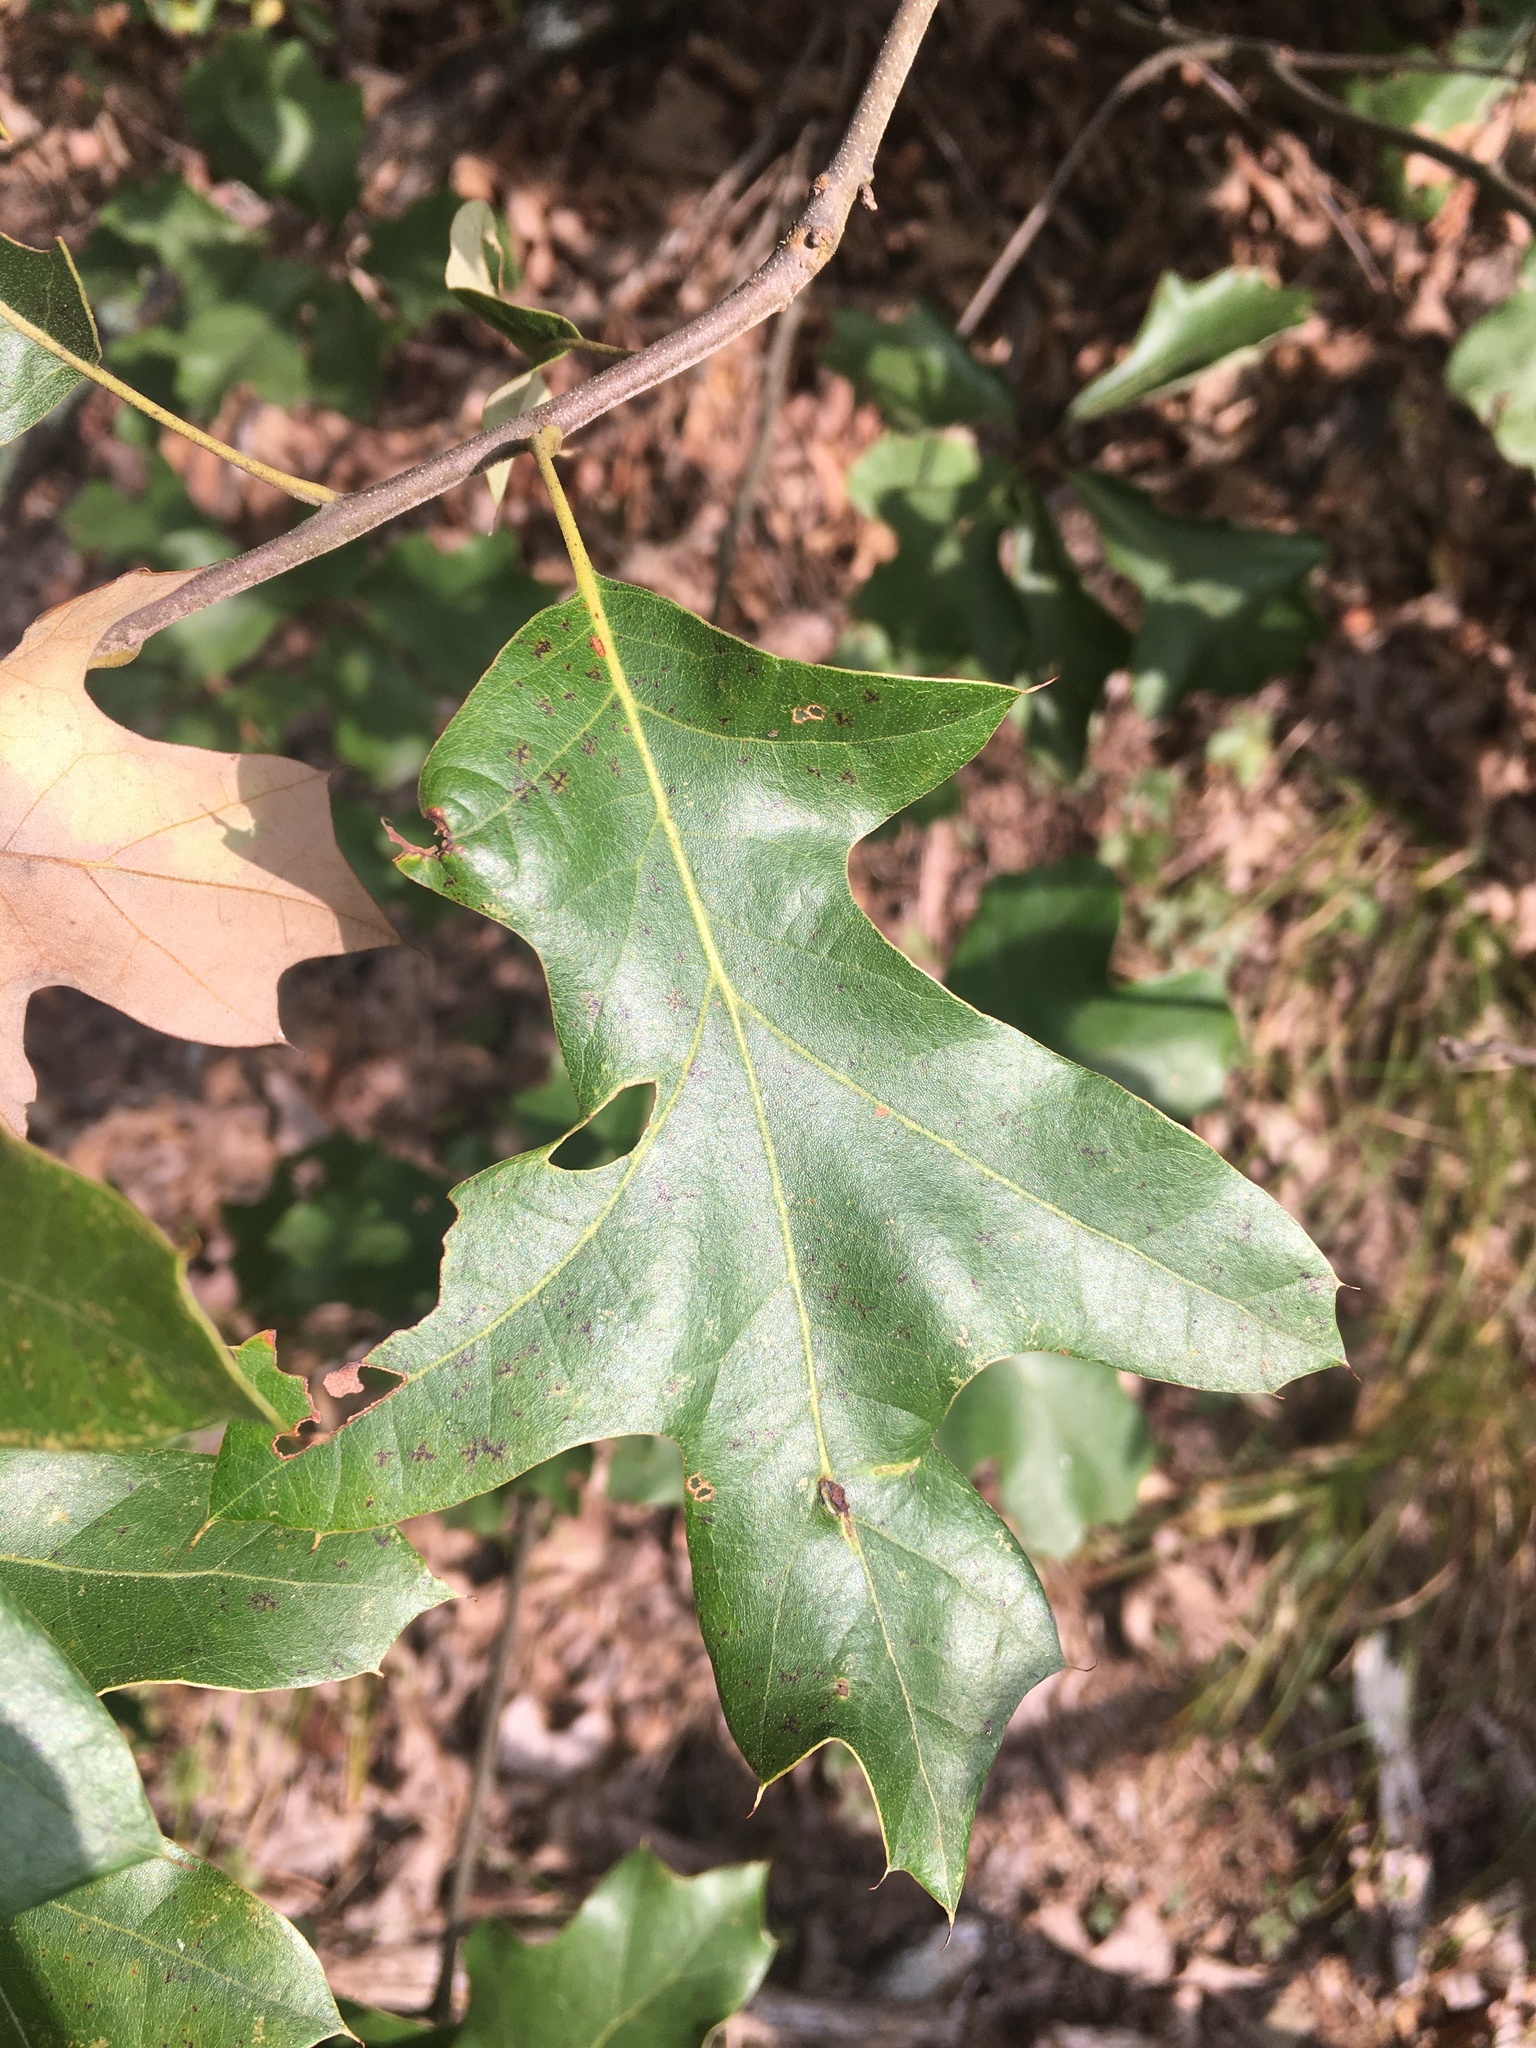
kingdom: Plantae
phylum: Tracheophyta
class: Magnoliopsida
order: Fagales
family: Fagaceae
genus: Quercus
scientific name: Quercus ilicifolia
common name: Bear oak
